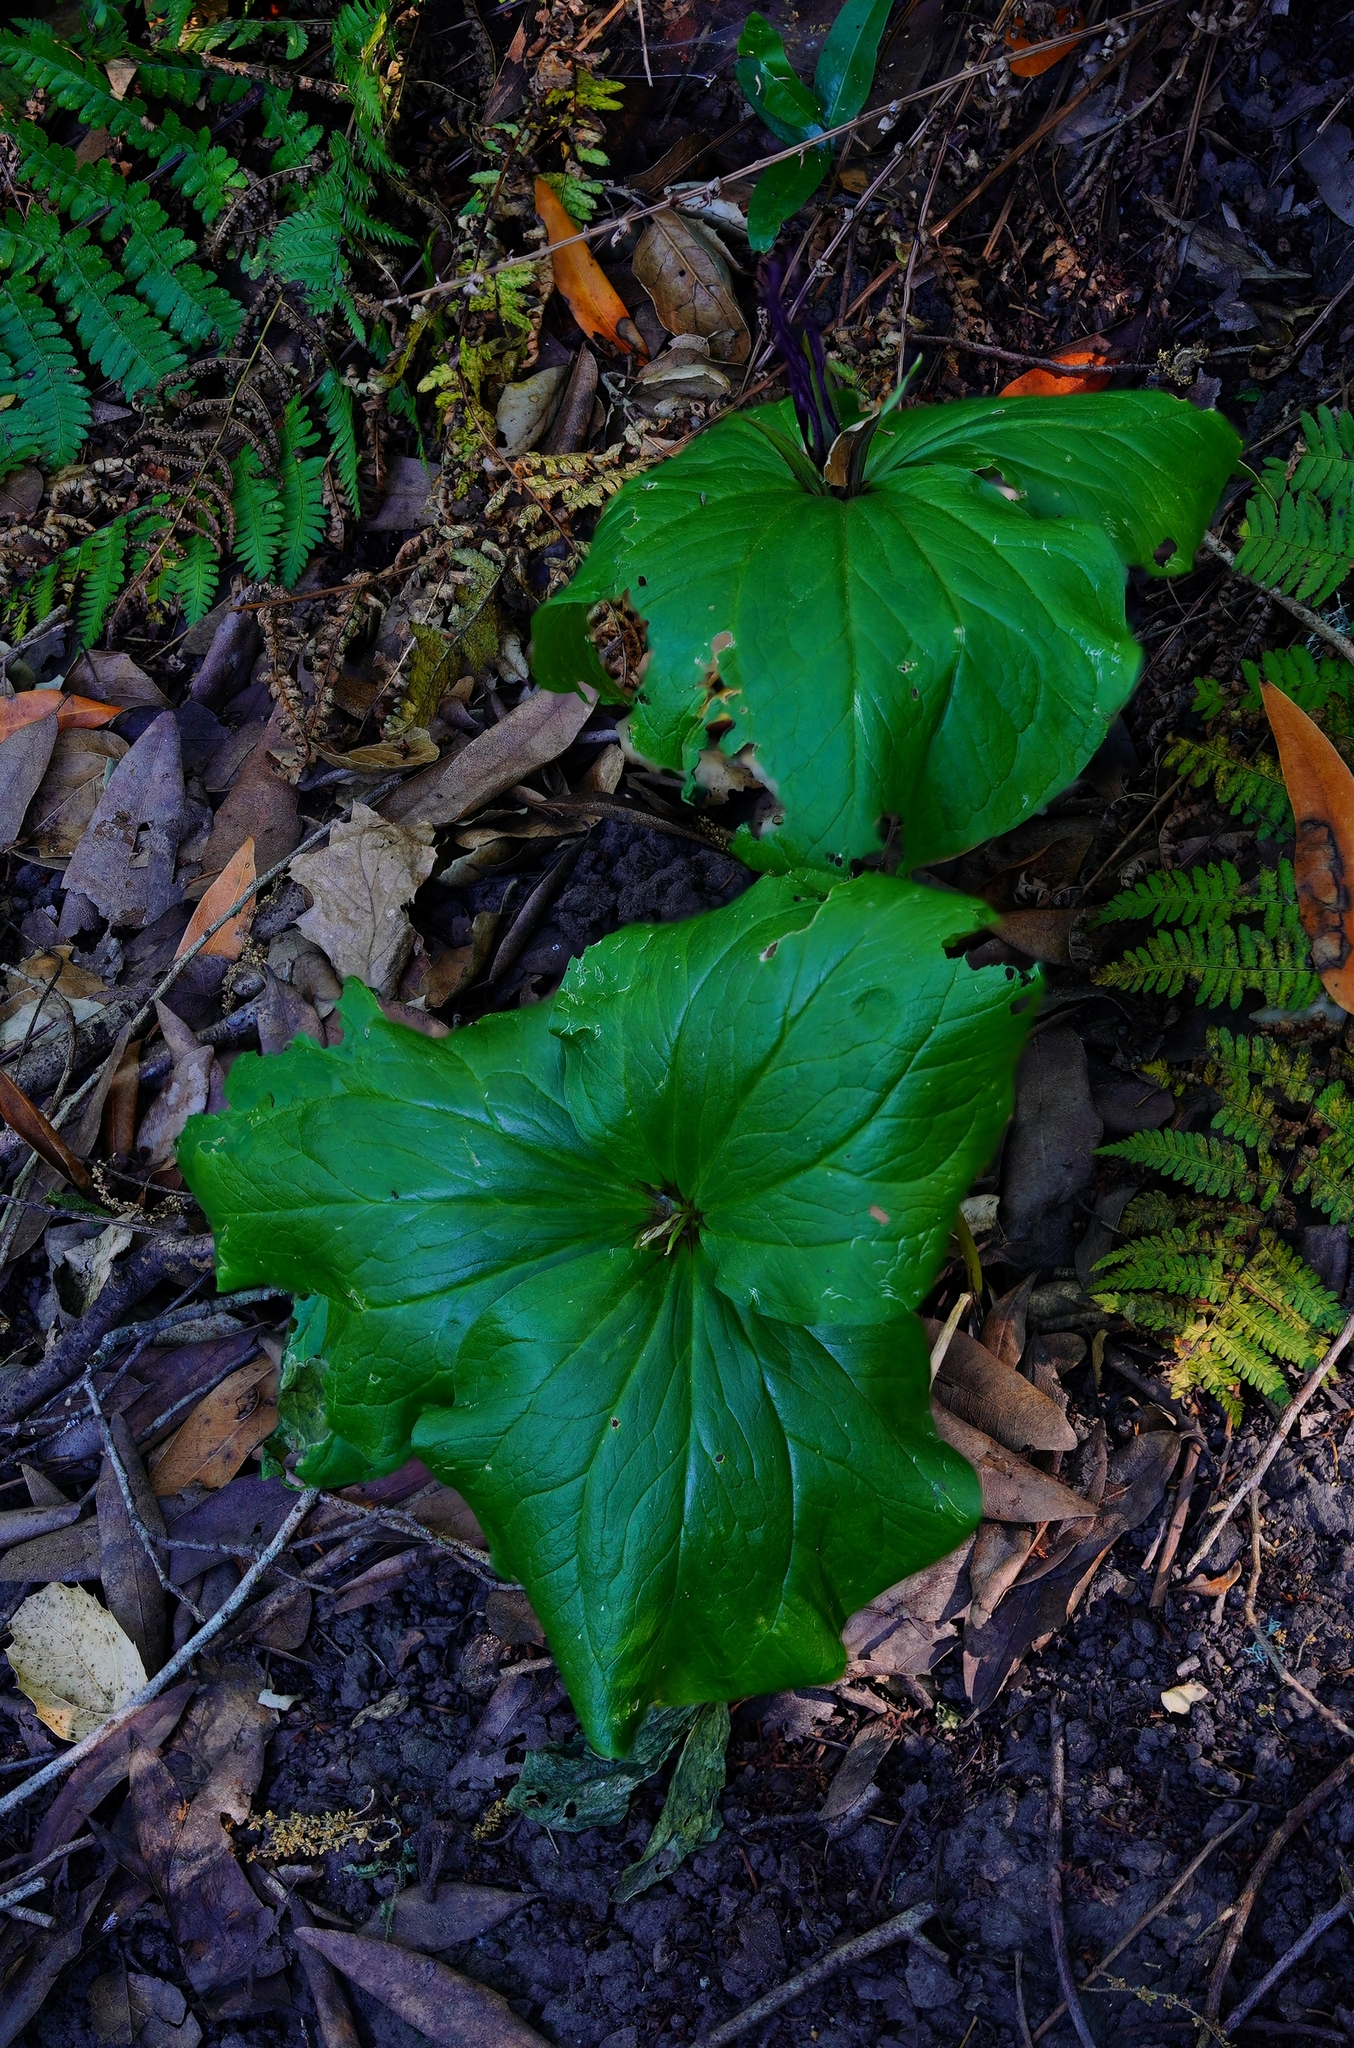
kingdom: Plantae
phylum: Tracheophyta
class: Liliopsida
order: Liliales
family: Melanthiaceae
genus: Trillium
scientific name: Trillium chloropetalum
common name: Giant trillium
